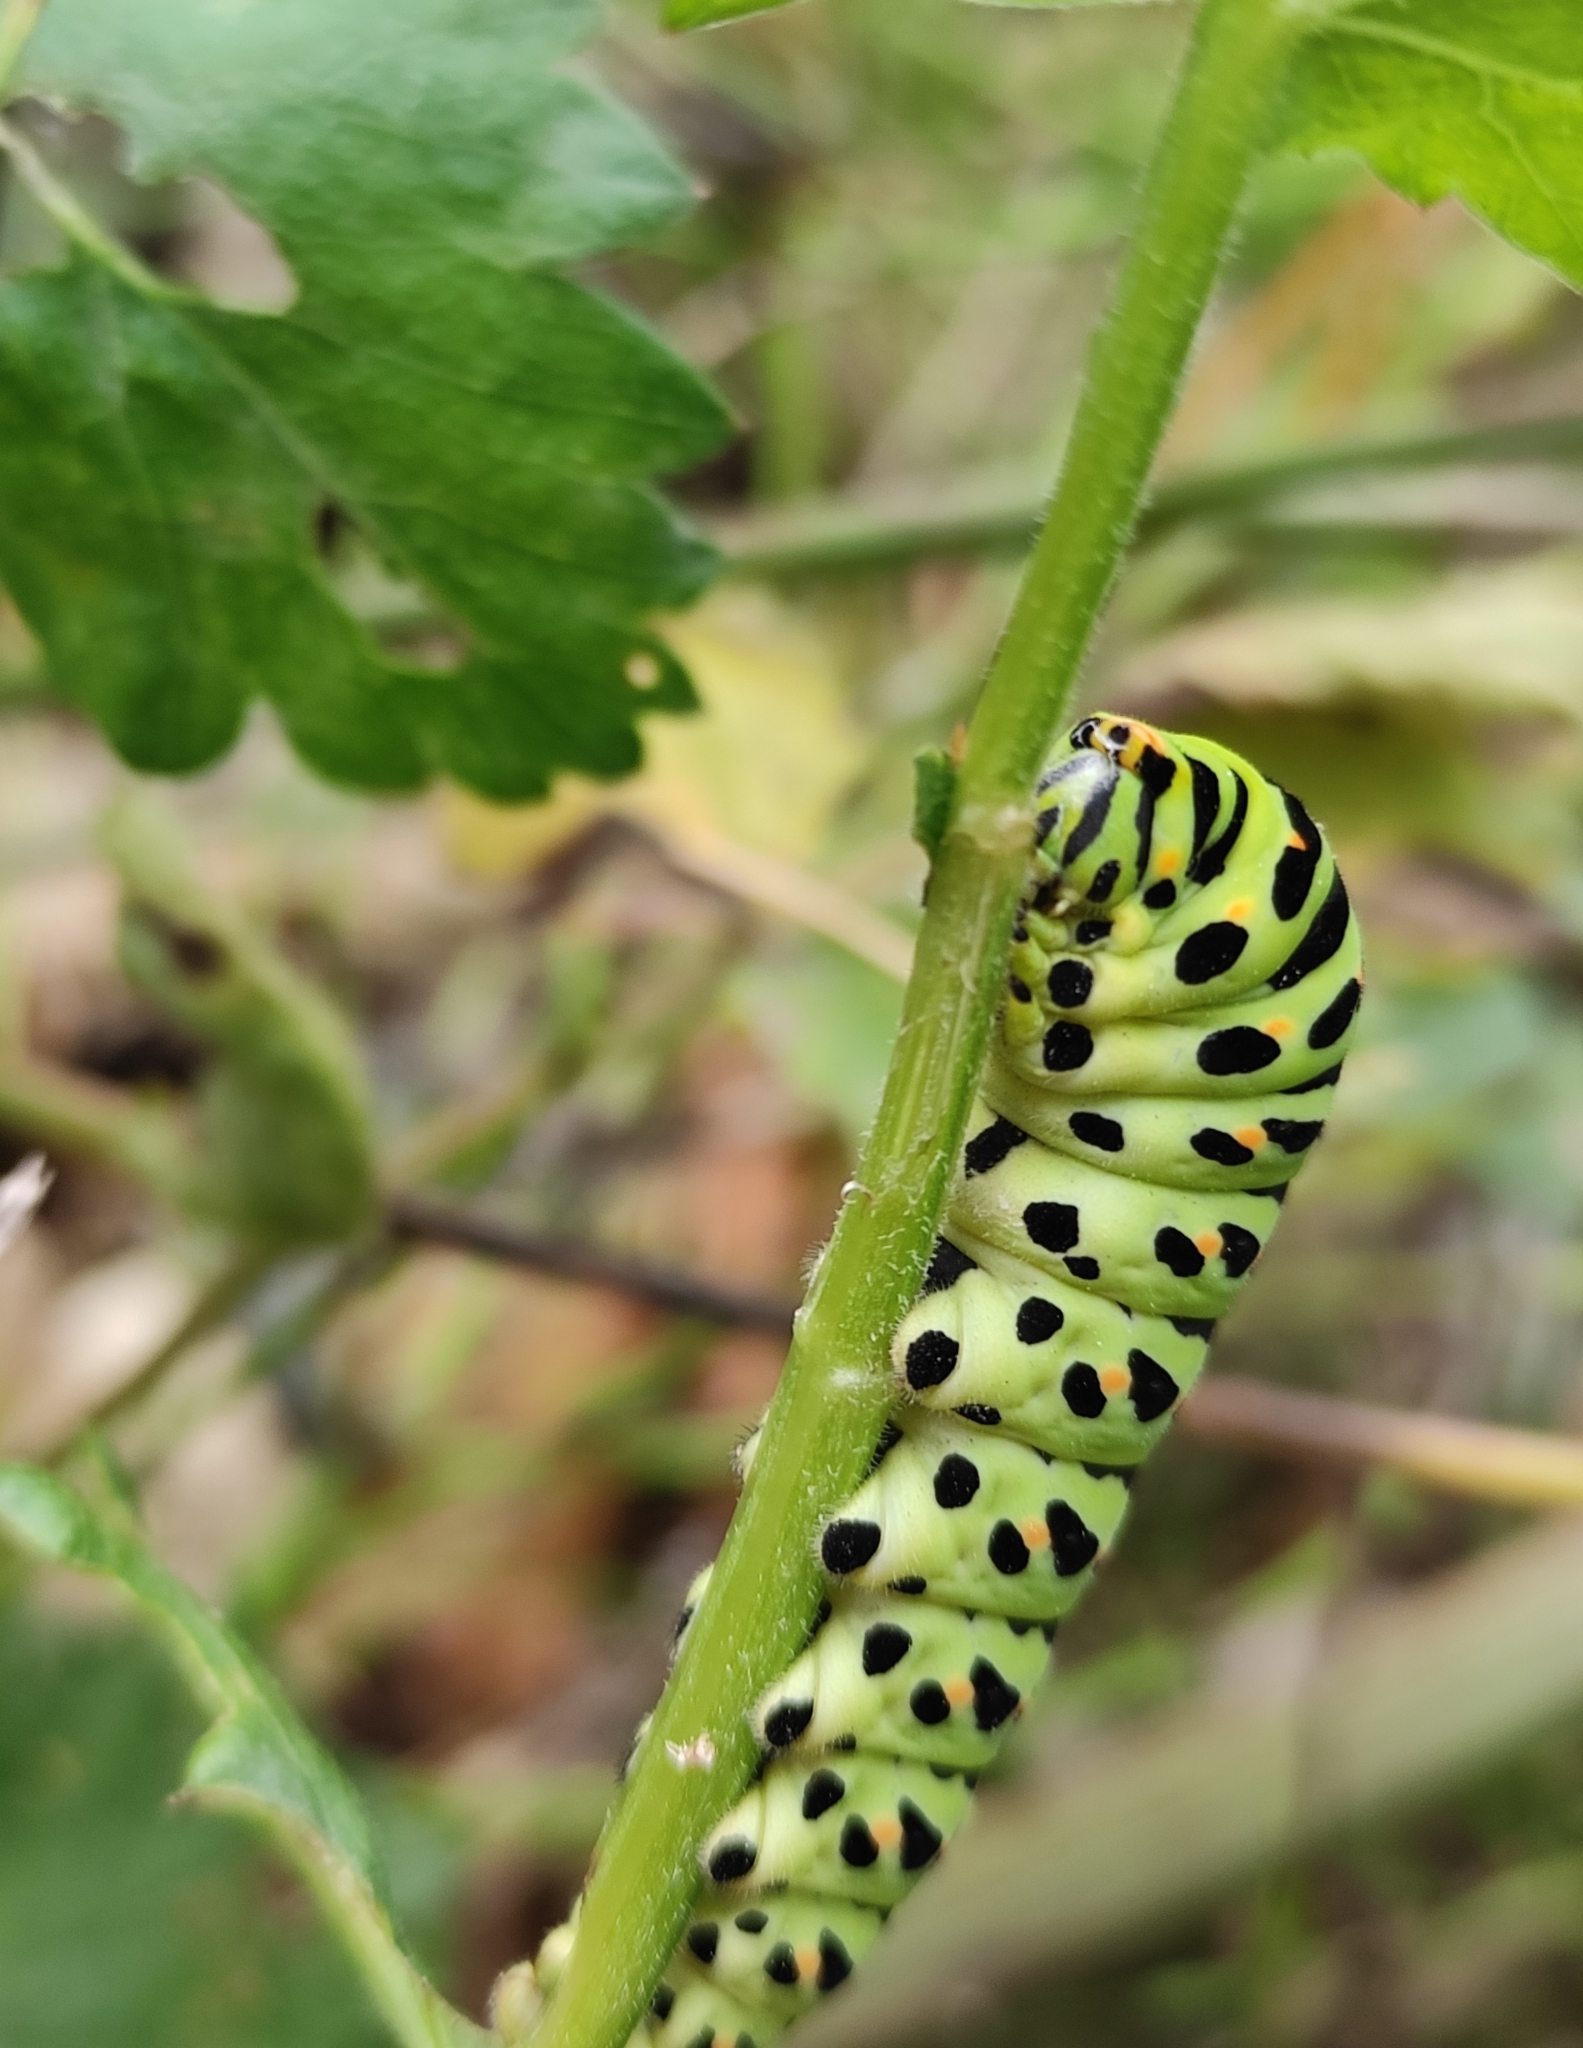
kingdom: Animalia
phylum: Arthropoda
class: Insecta
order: Lepidoptera
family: Papilionidae
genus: Papilio
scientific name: Papilio machaon
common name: Swallowtail
